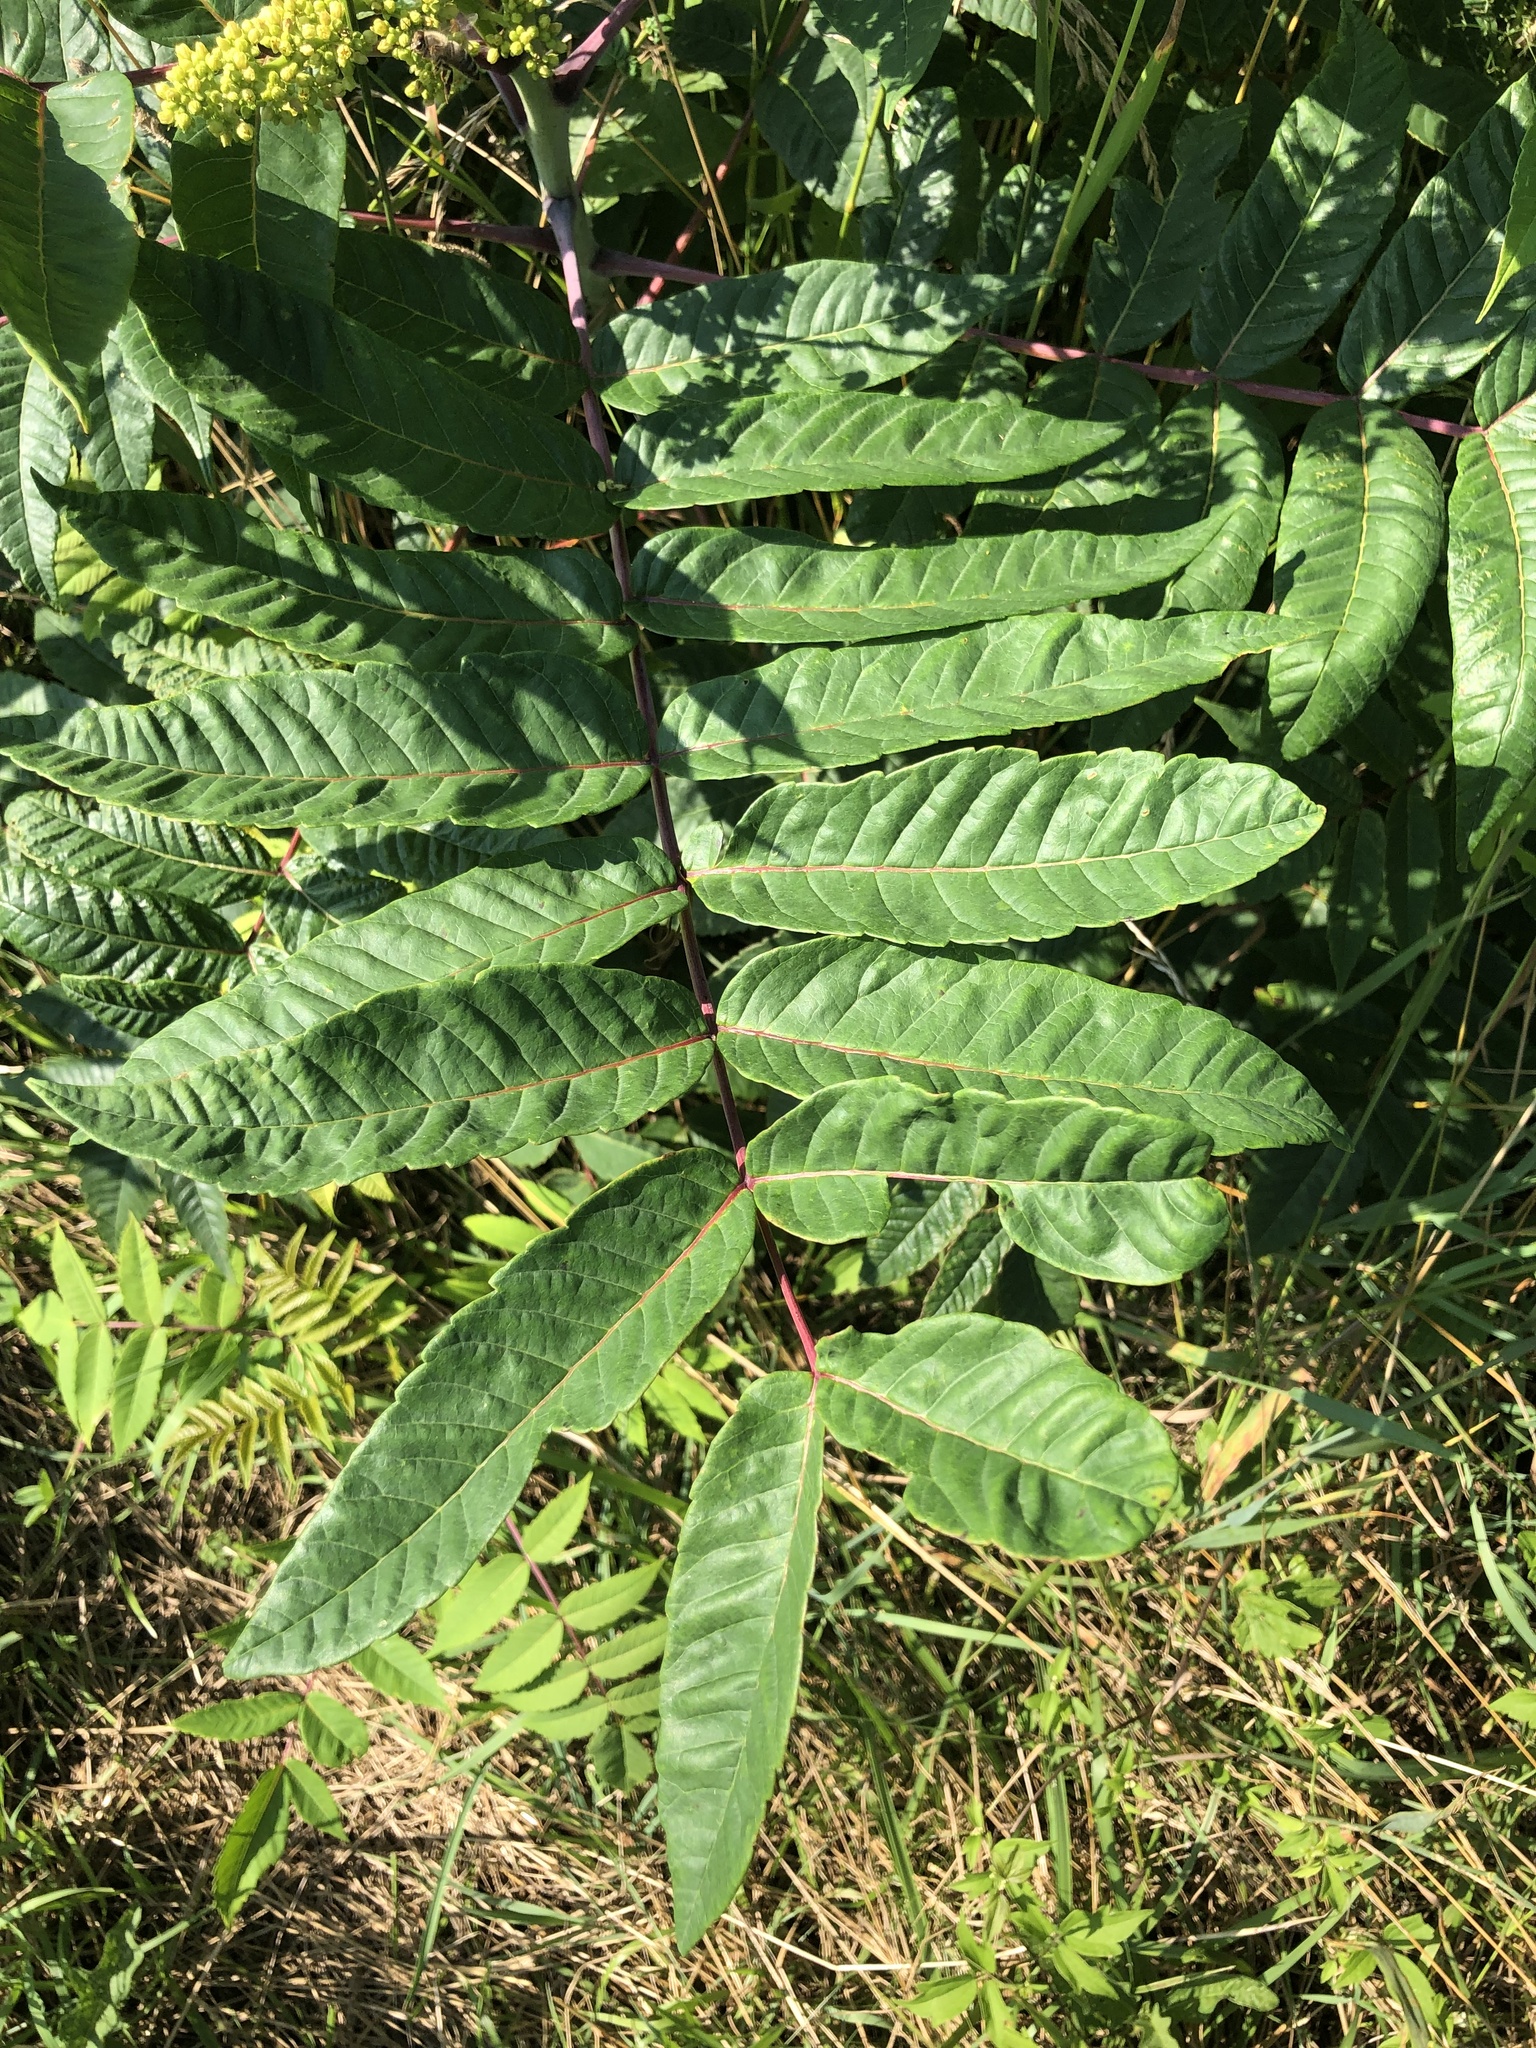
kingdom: Plantae
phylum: Tracheophyta
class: Magnoliopsida
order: Sapindales
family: Anacardiaceae
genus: Rhus
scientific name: Rhus glabra
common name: Scarlet sumac
